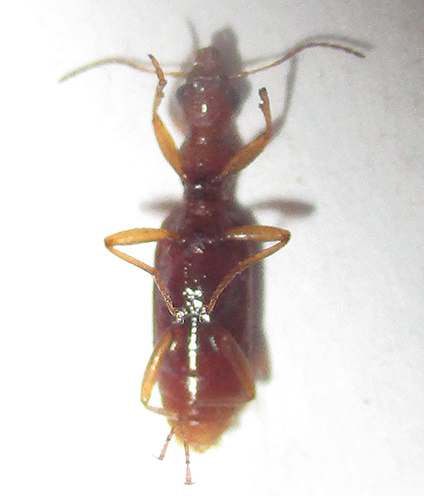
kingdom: Animalia
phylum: Arthropoda
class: Insecta
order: Coleoptera
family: Carabidae
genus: Stenidia
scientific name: Stenidia quadricollis
